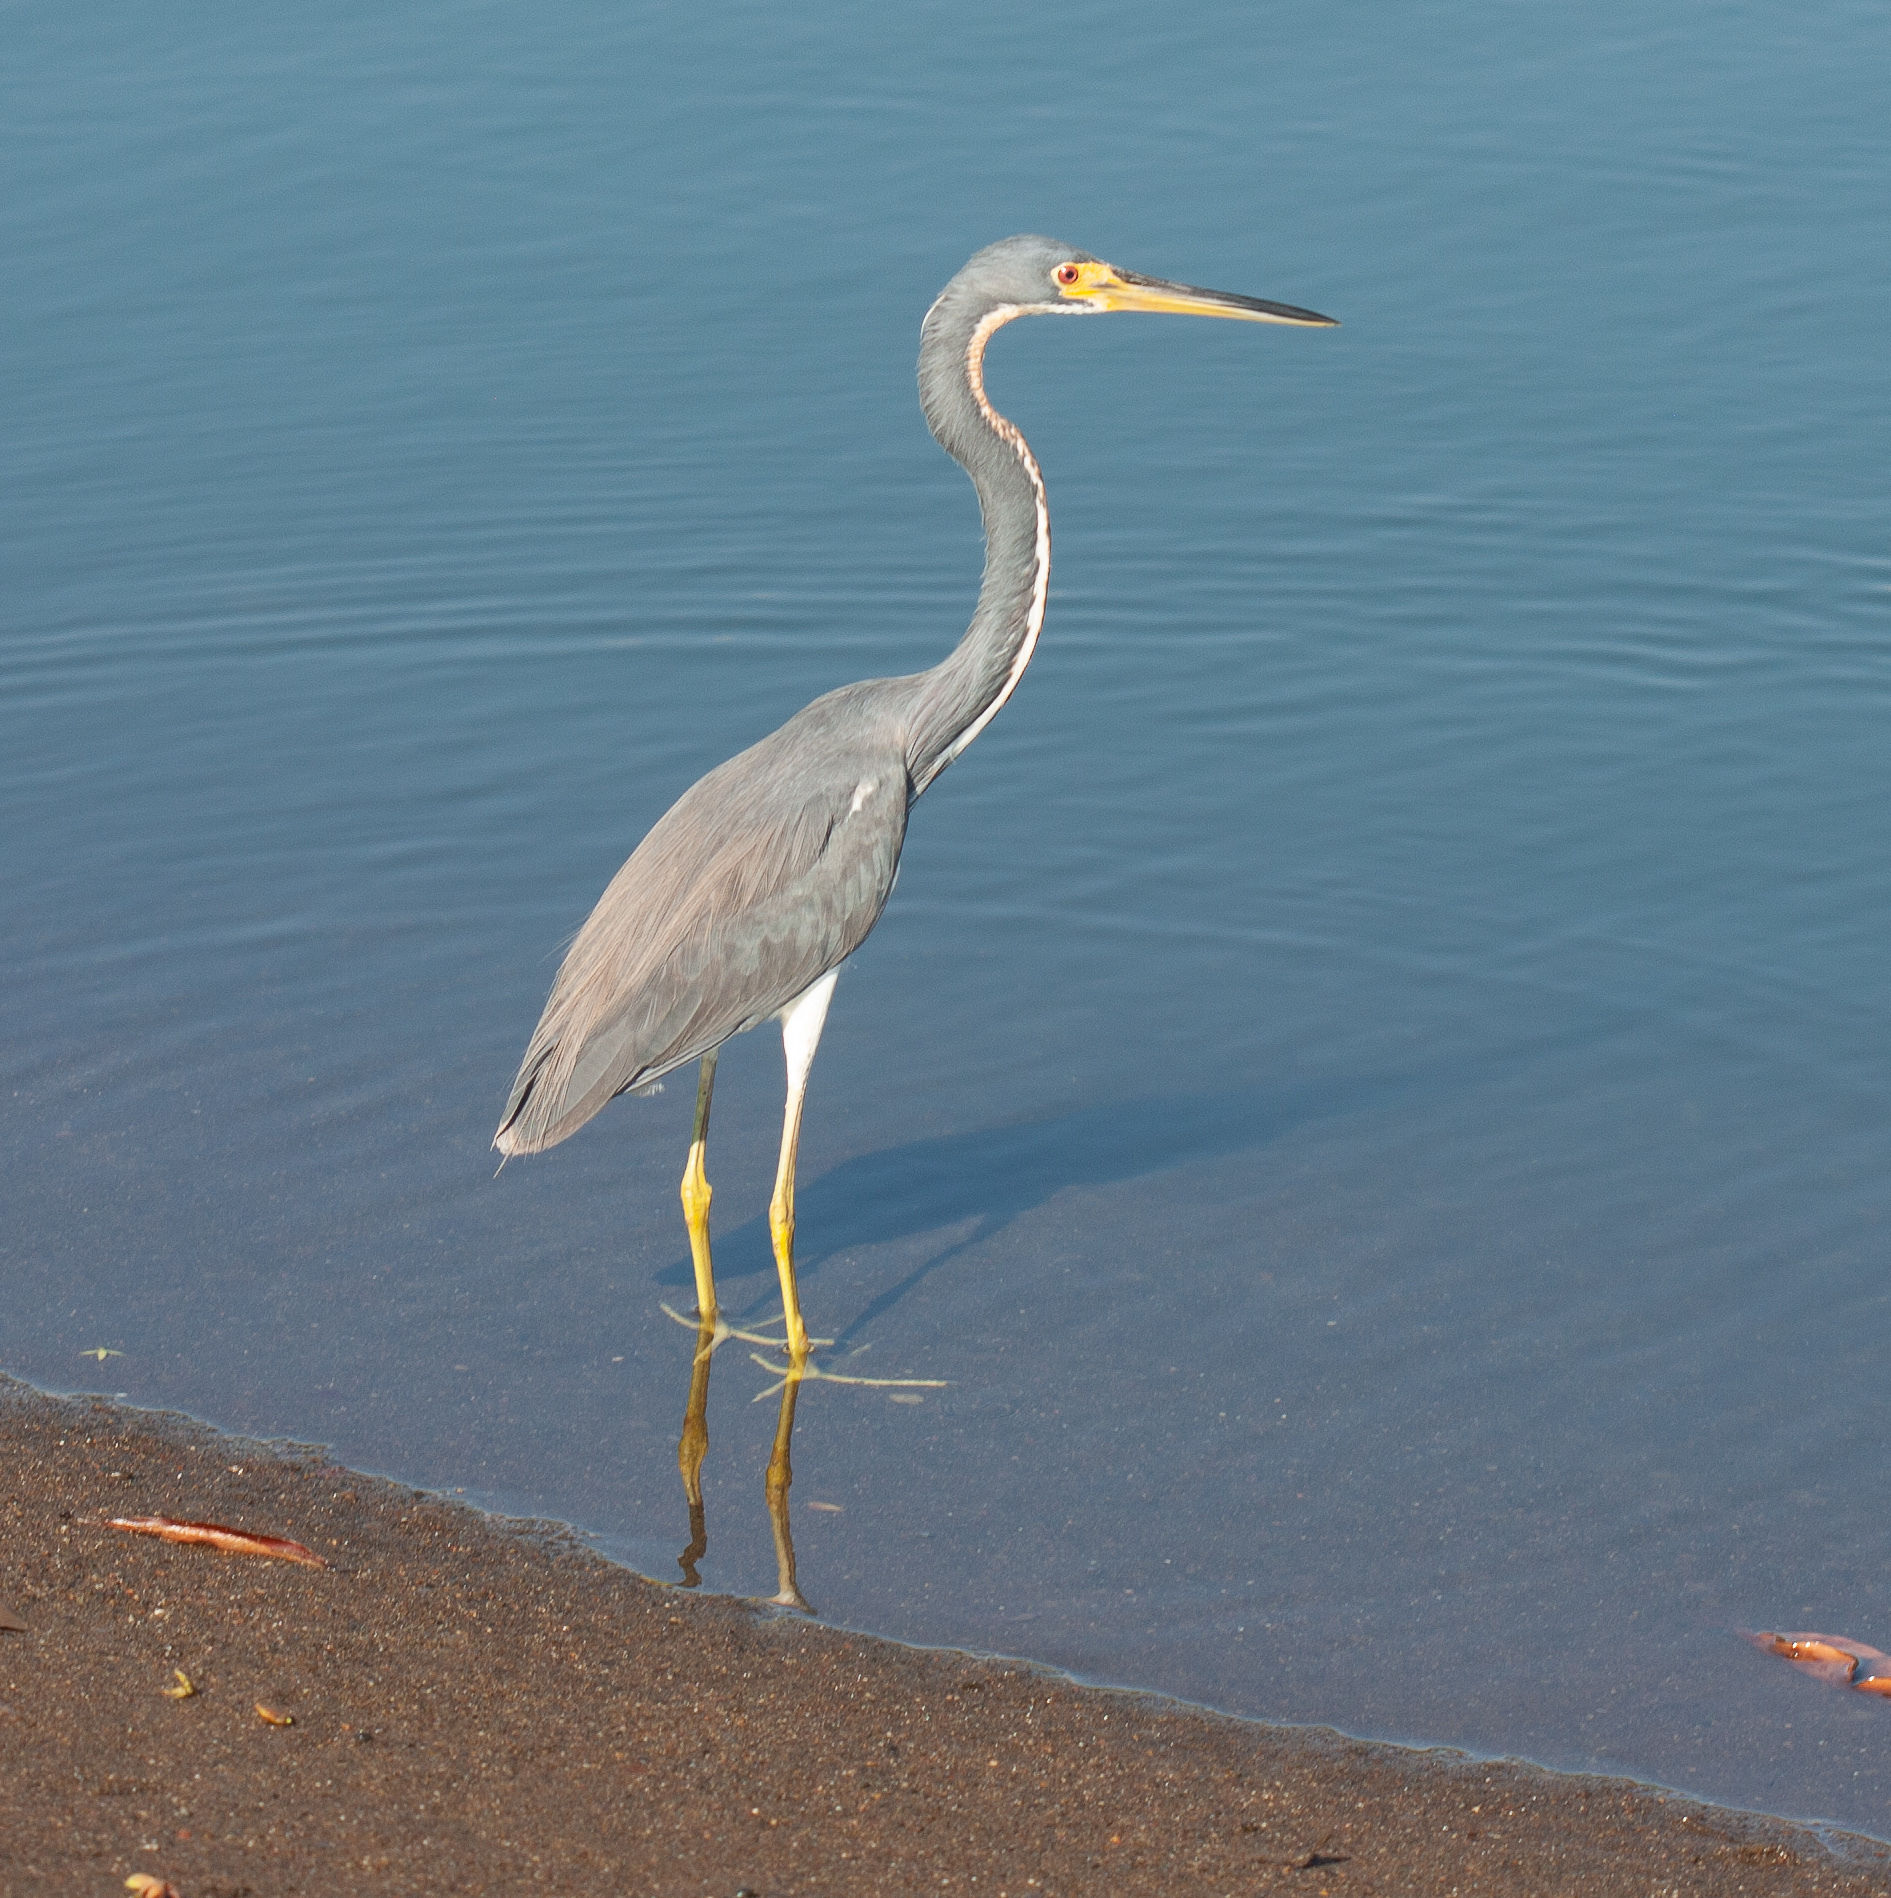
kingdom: Animalia
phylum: Chordata
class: Aves
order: Pelecaniformes
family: Ardeidae
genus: Egretta
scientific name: Egretta tricolor
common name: Tricolored heron
